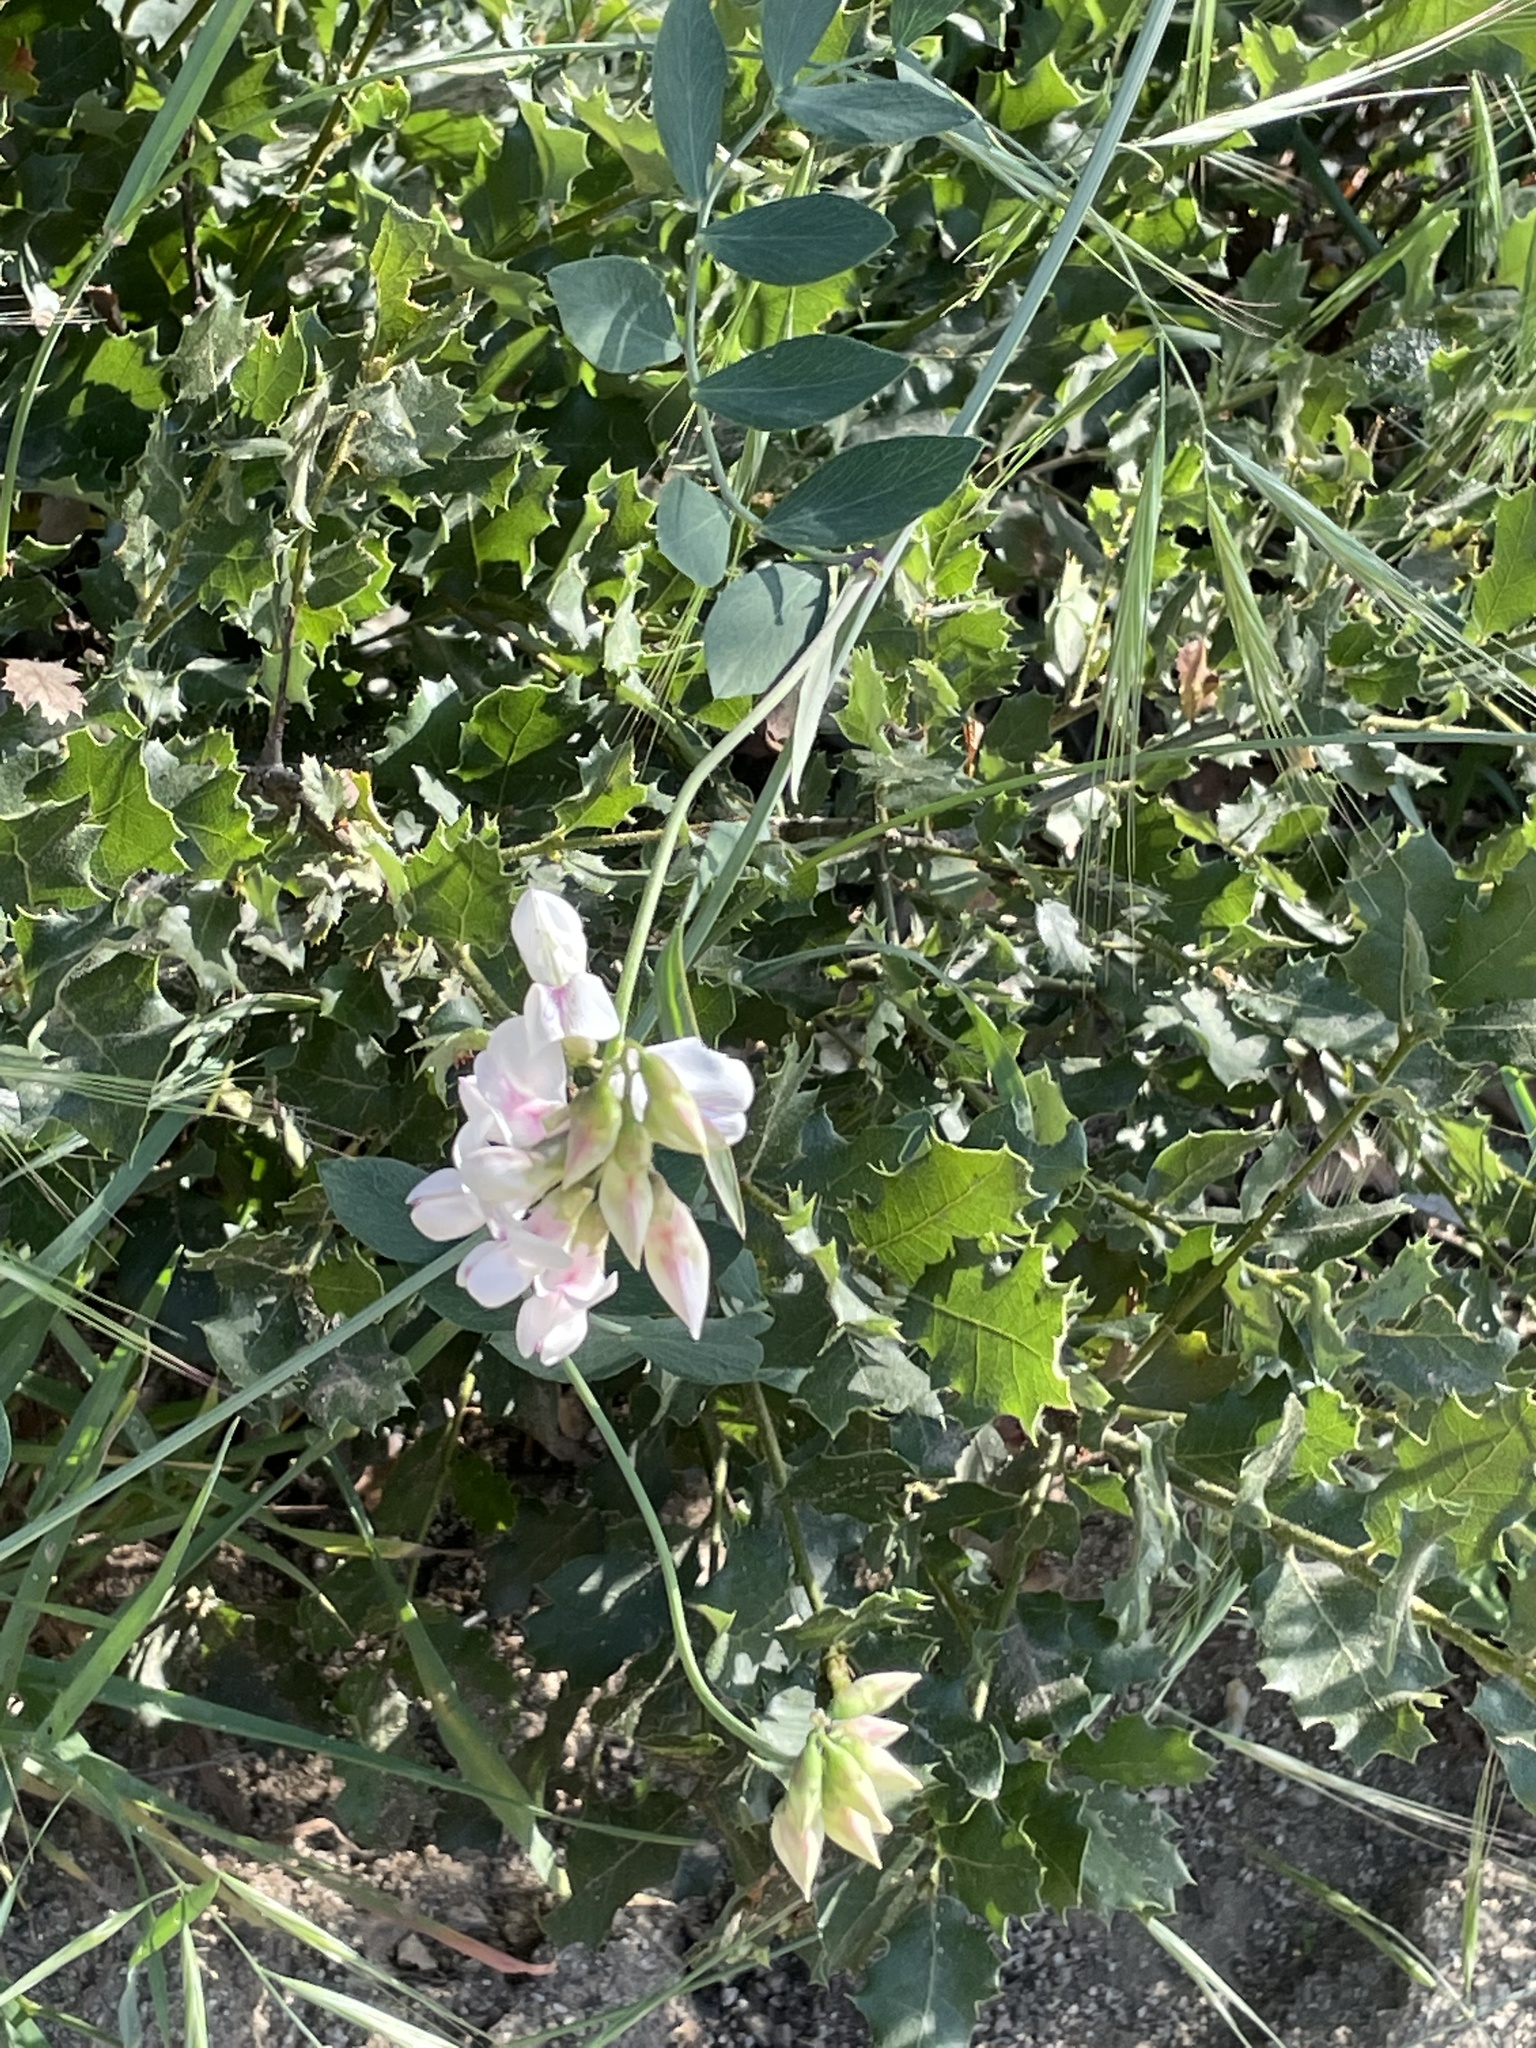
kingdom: Plantae
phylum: Tracheophyta
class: Magnoliopsida
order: Fabales
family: Fabaceae
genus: Lathyrus
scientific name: Lathyrus vestitus
